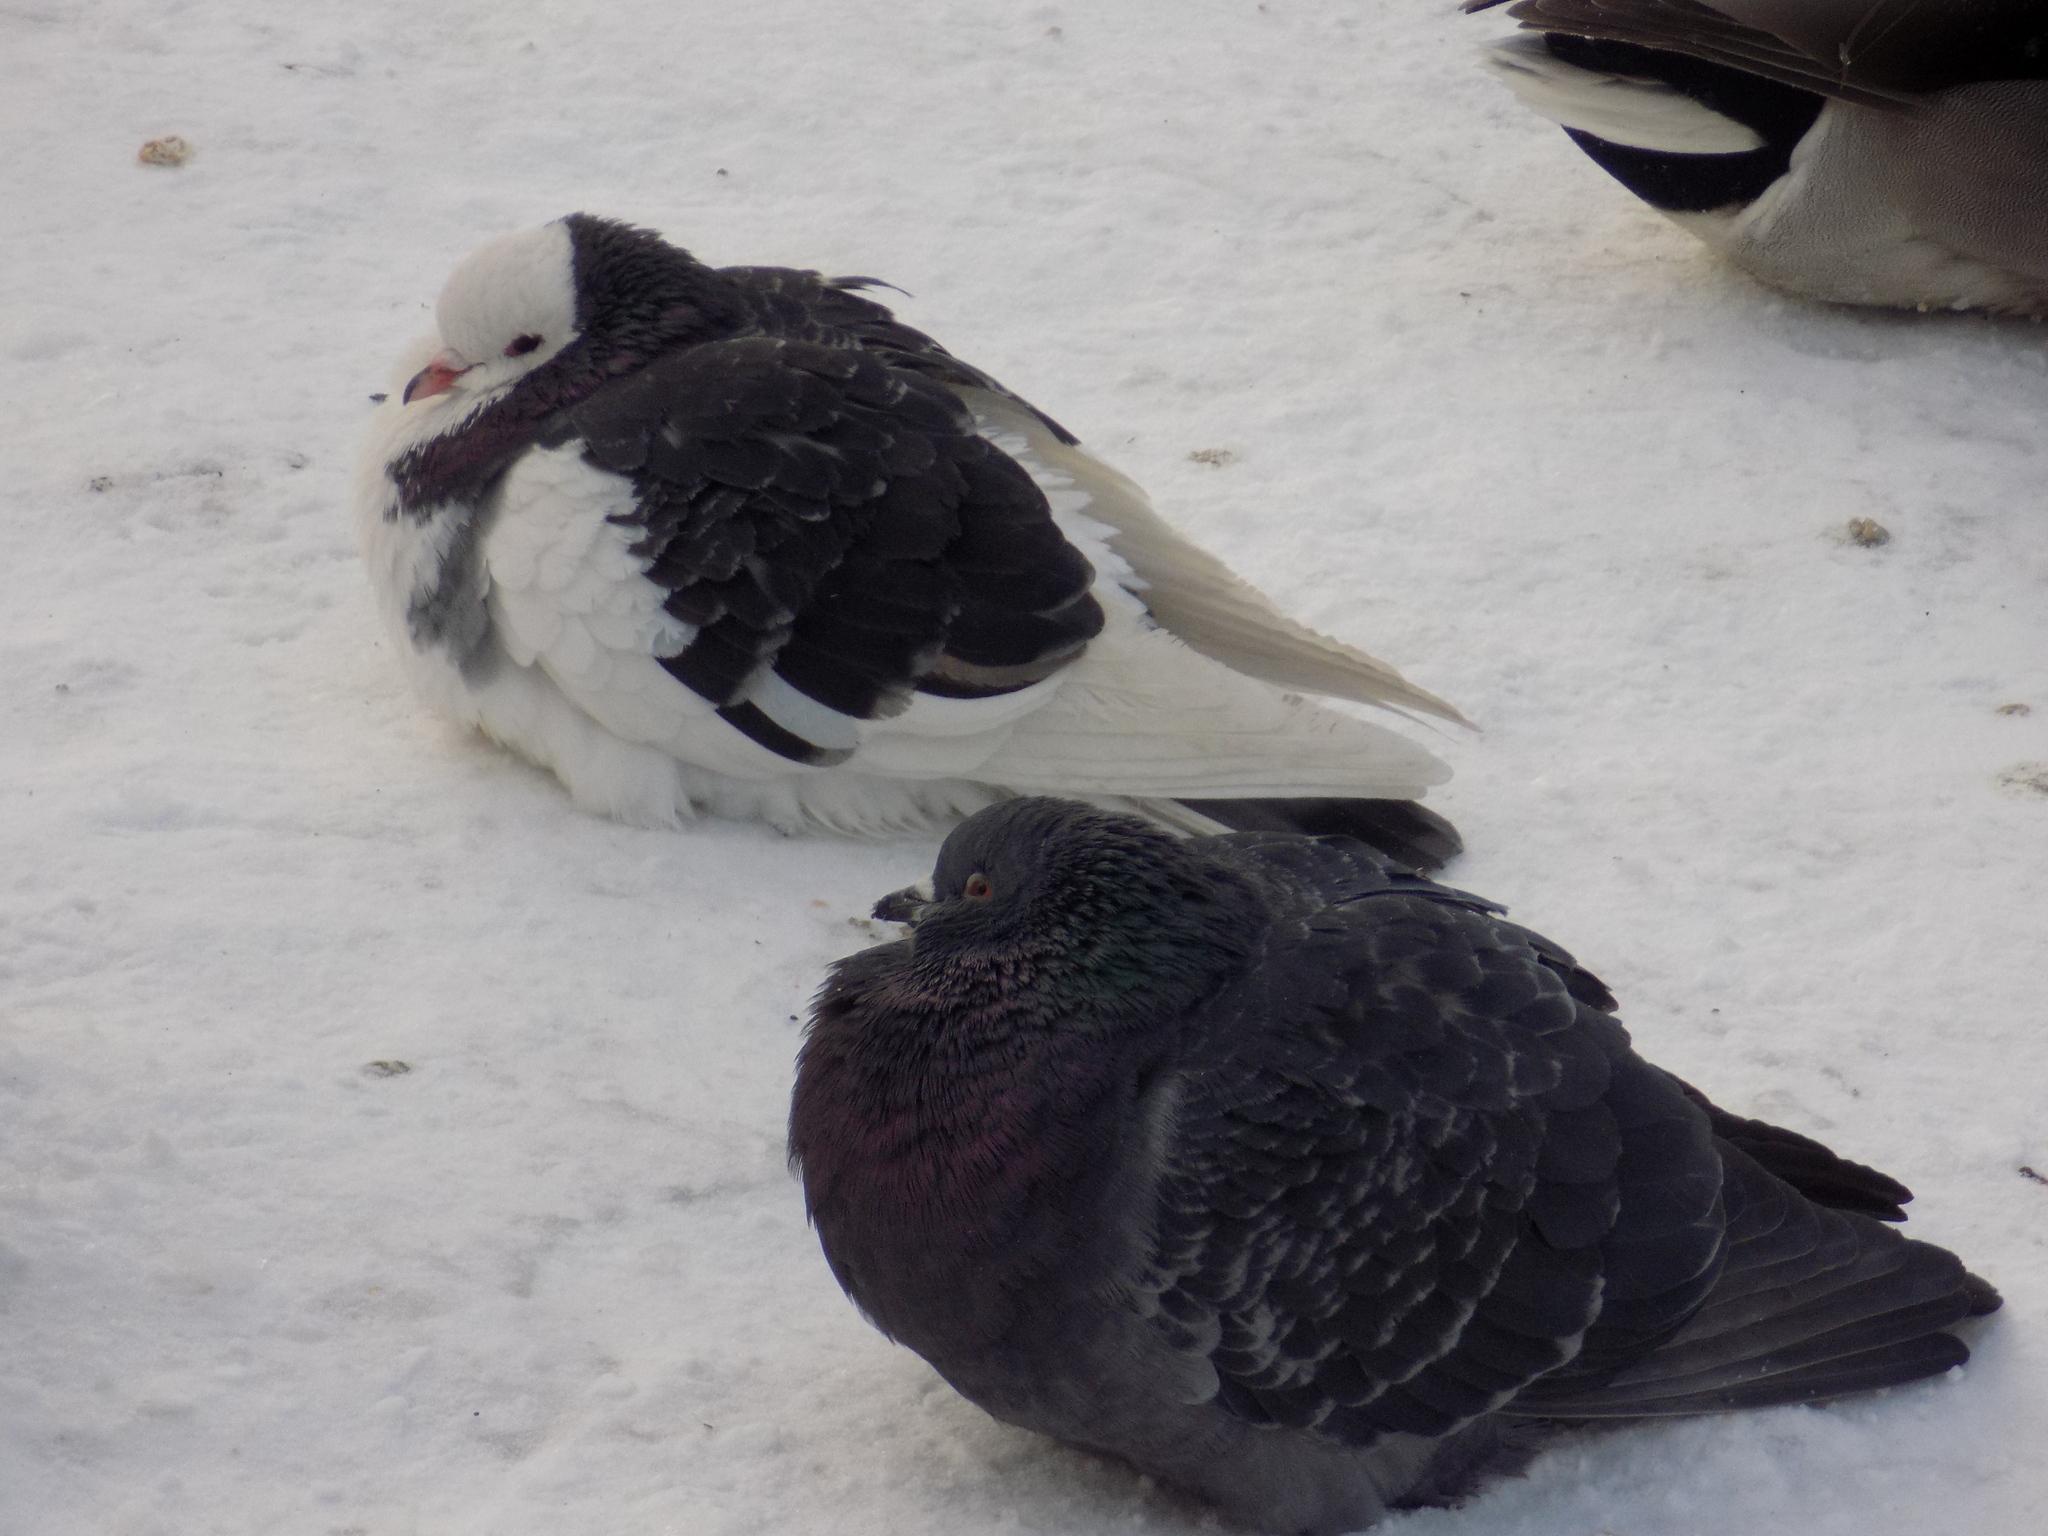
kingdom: Animalia
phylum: Chordata
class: Aves
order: Columbiformes
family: Columbidae
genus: Columba
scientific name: Columba livia
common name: Rock pigeon
